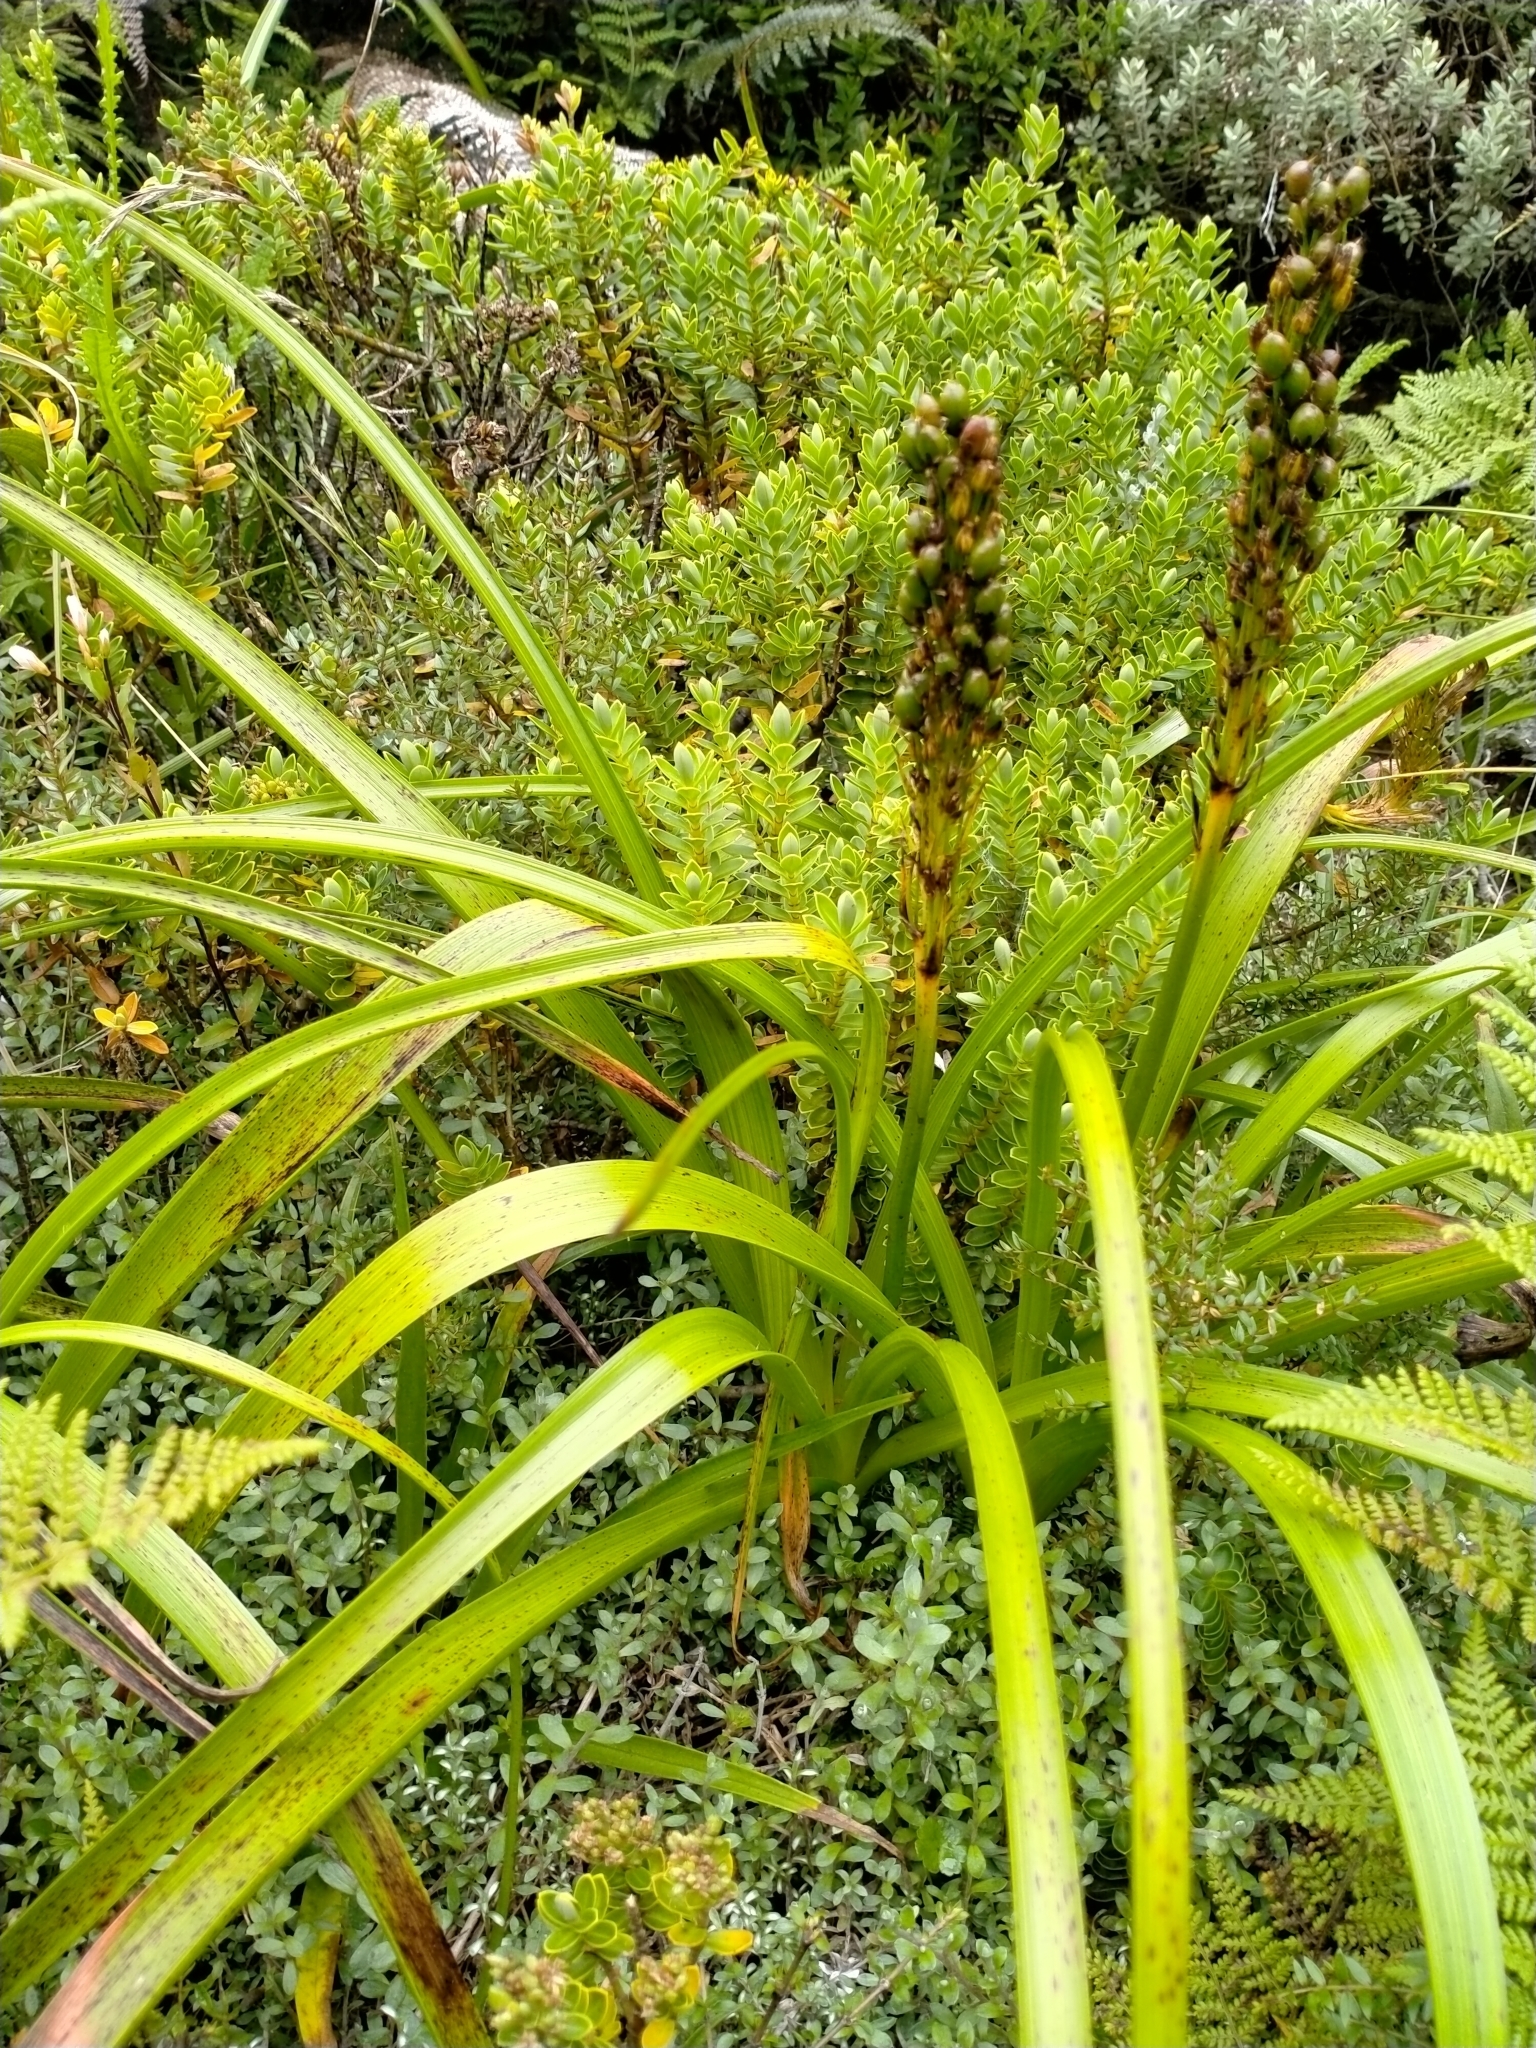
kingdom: Plantae
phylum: Tracheophyta
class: Liliopsida
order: Asparagales
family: Asphodelaceae
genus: Bulbinella
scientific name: Bulbinella gibbsii
